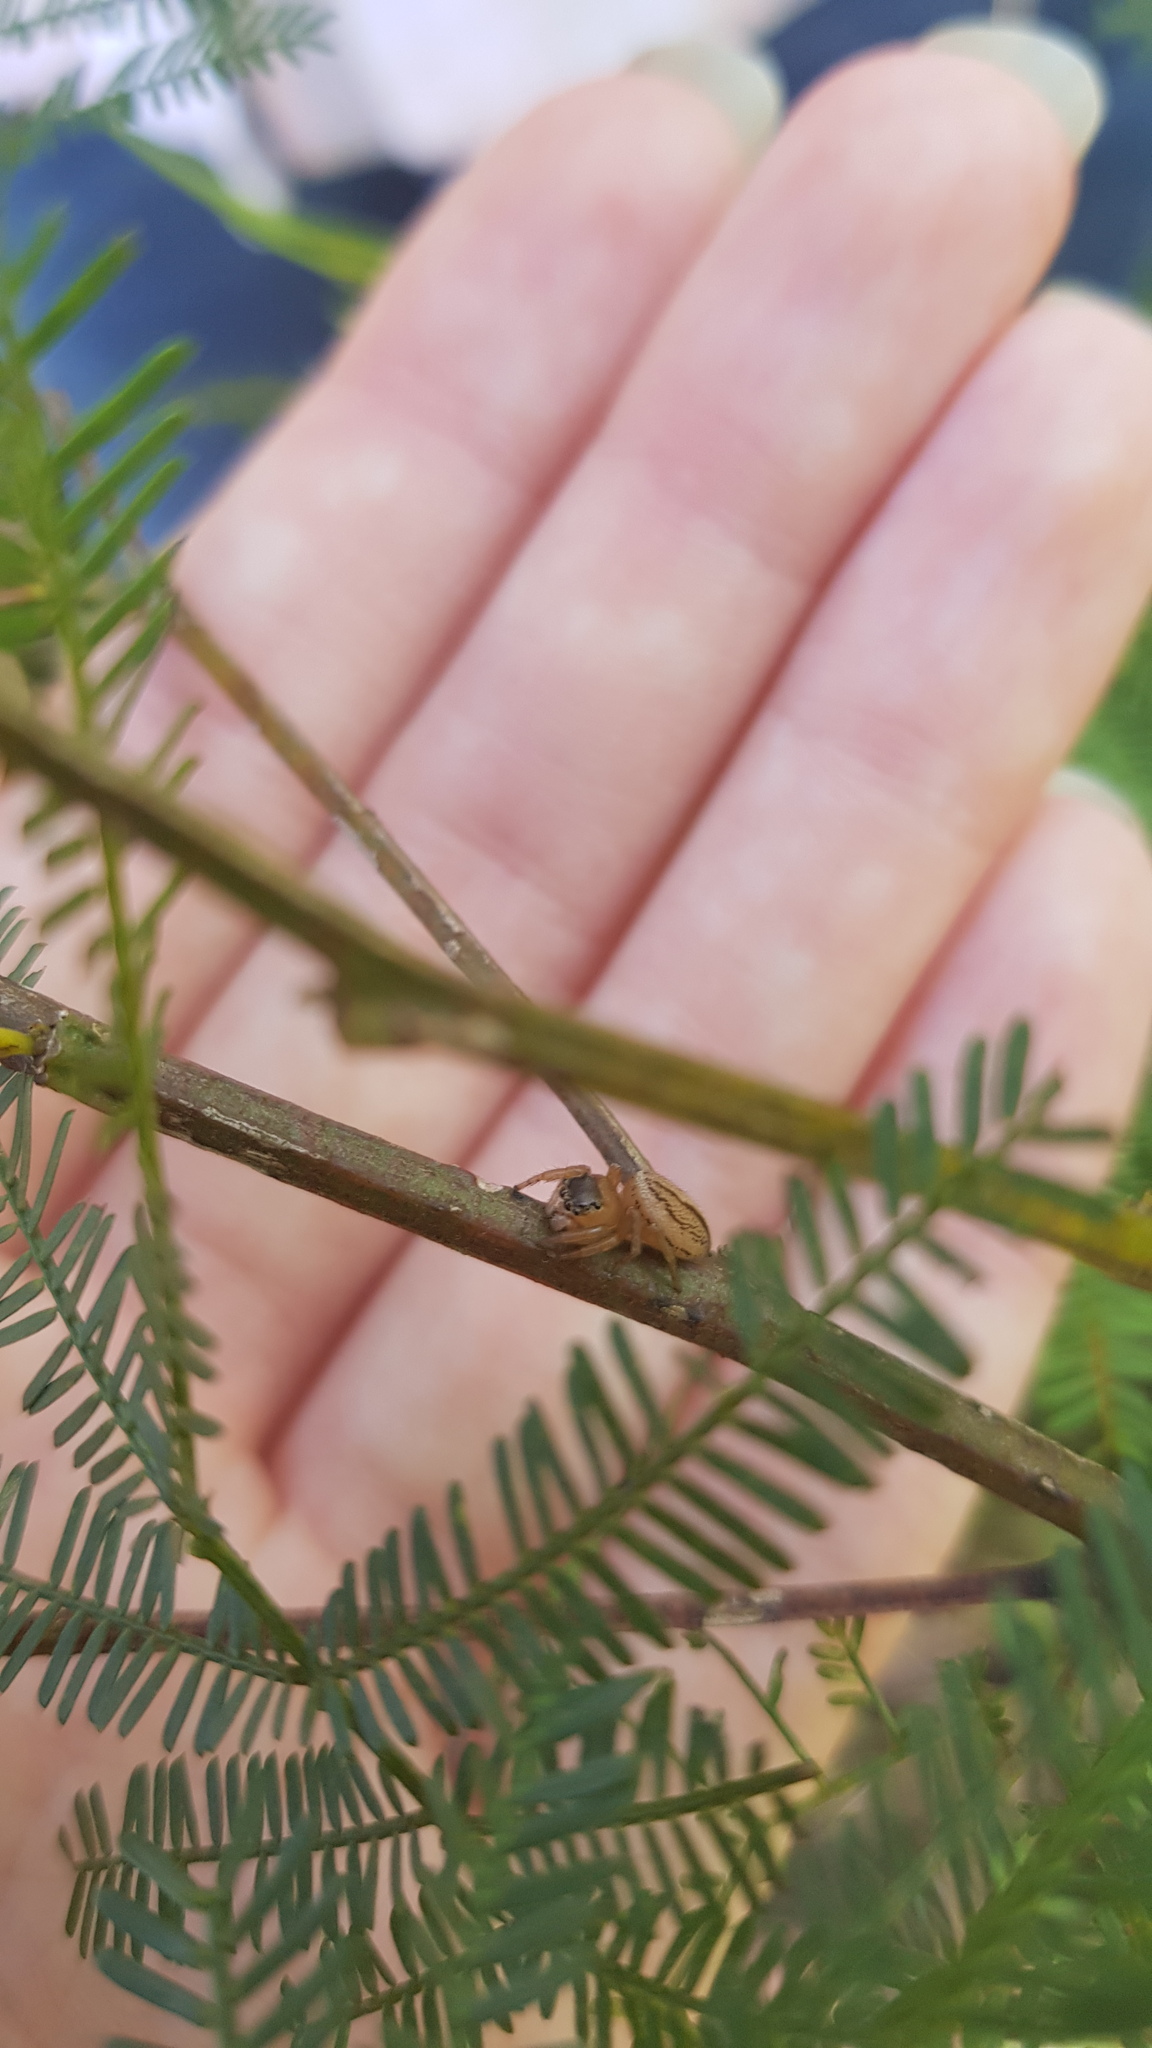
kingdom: Animalia
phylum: Arthropoda
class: Arachnida
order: Araneae
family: Salticidae
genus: Maratus
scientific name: Maratus scutulatus
